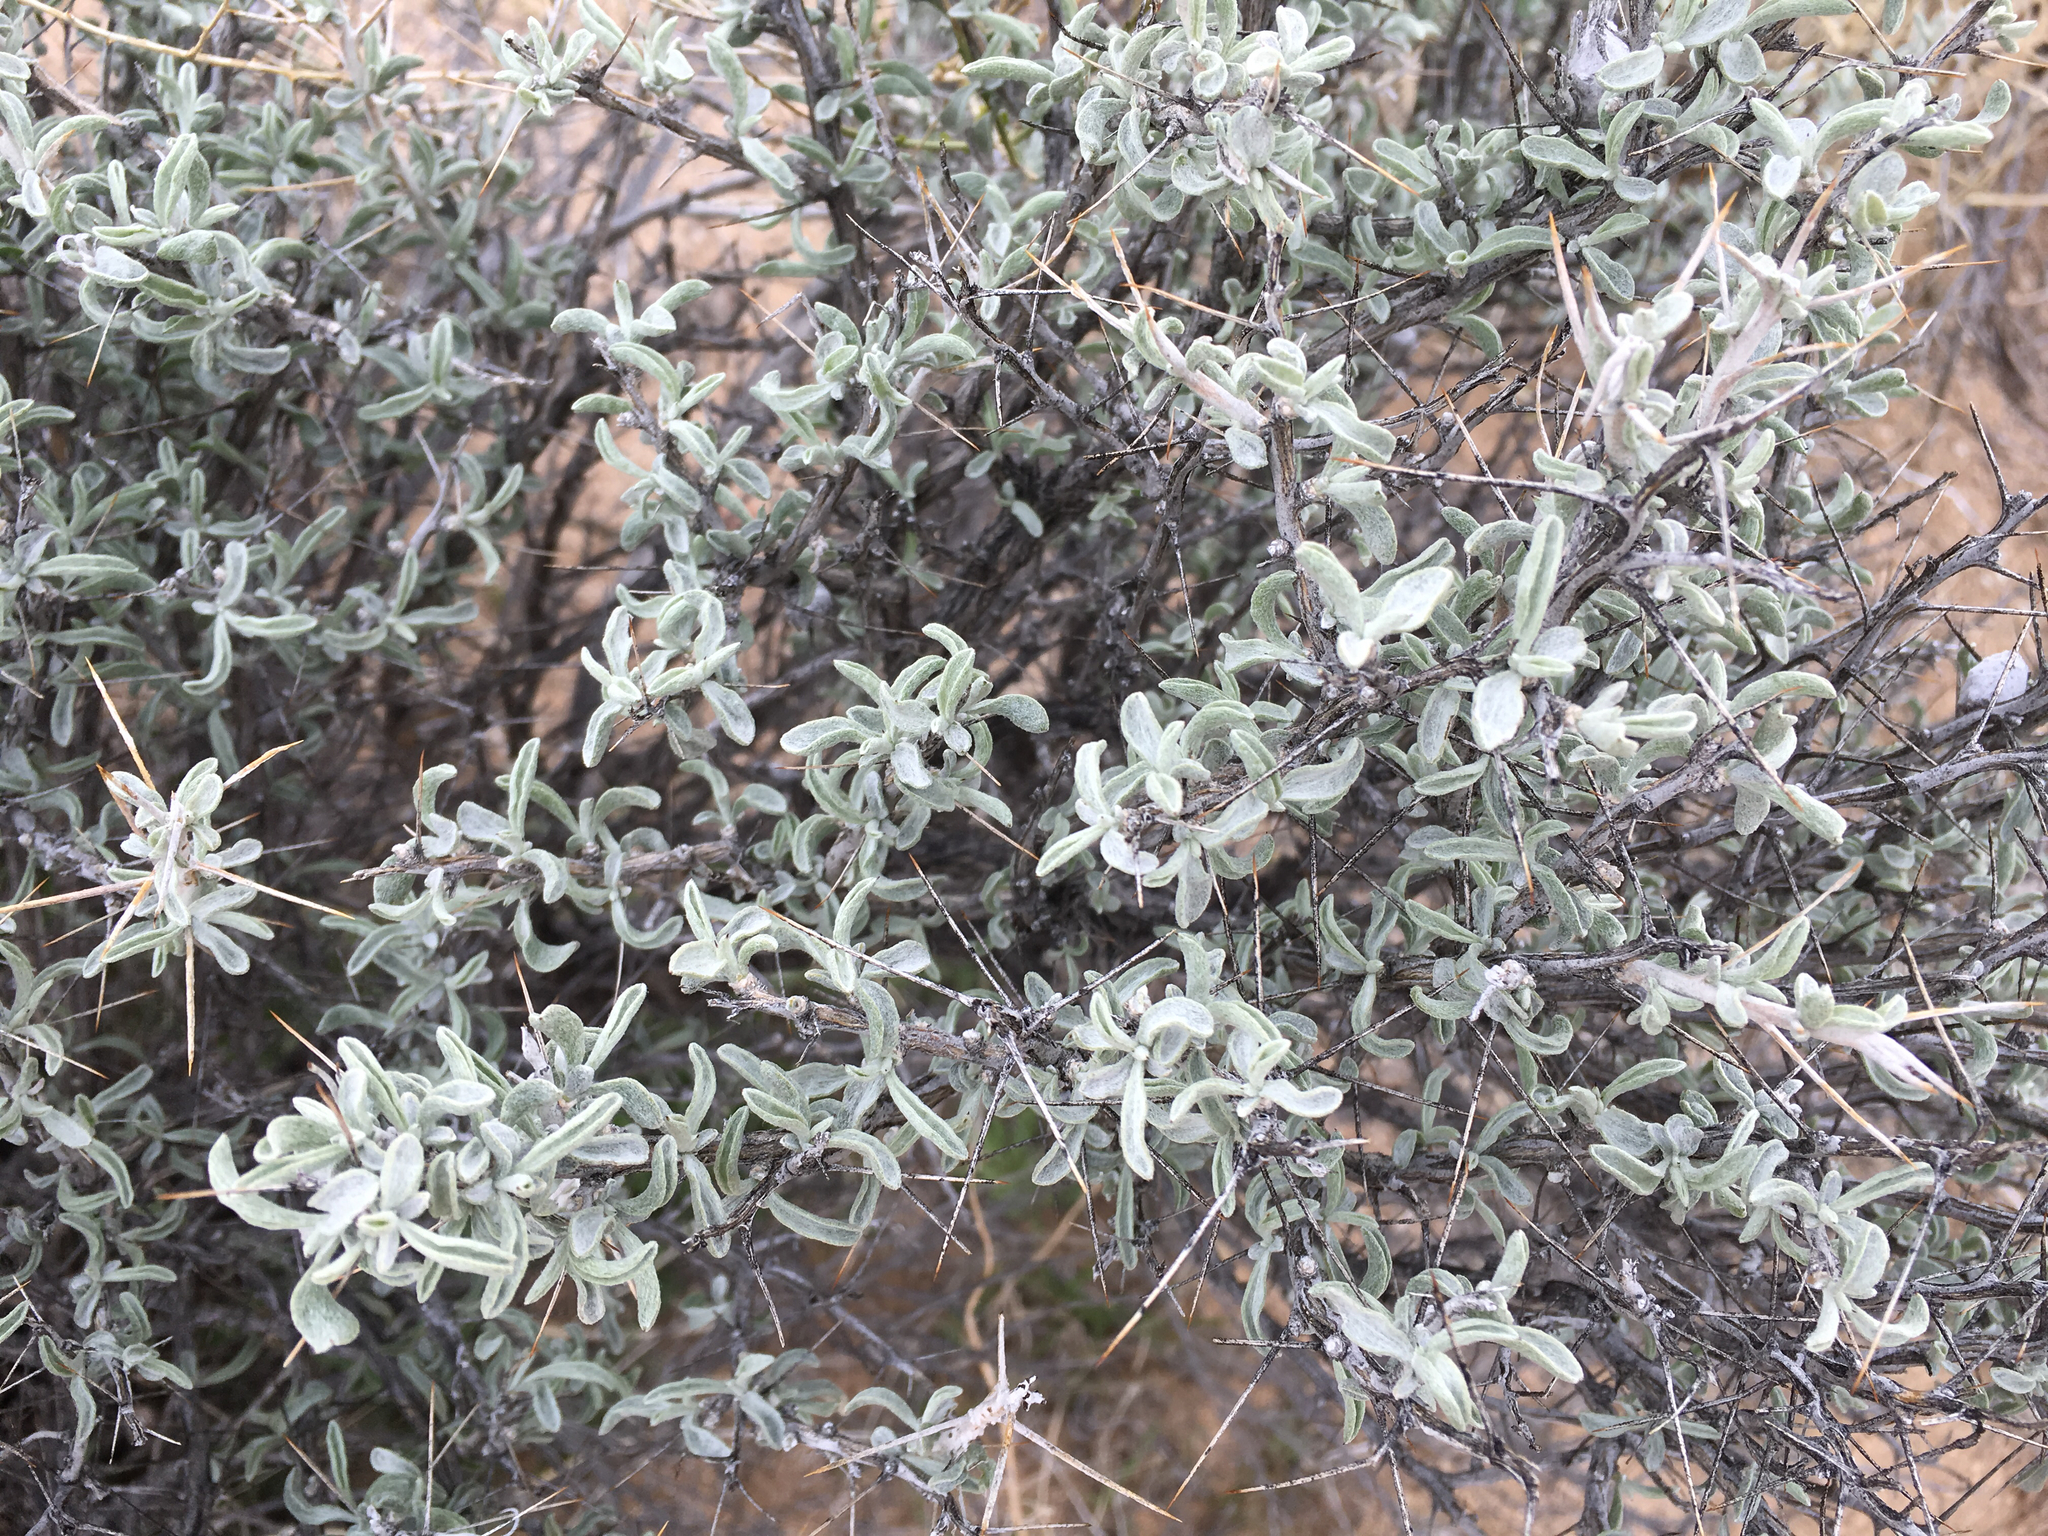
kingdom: Plantae
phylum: Tracheophyta
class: Magnoliopsida
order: Asterales
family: Asteraceae
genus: Tetradymia
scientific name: Tetradymia stenolepis
